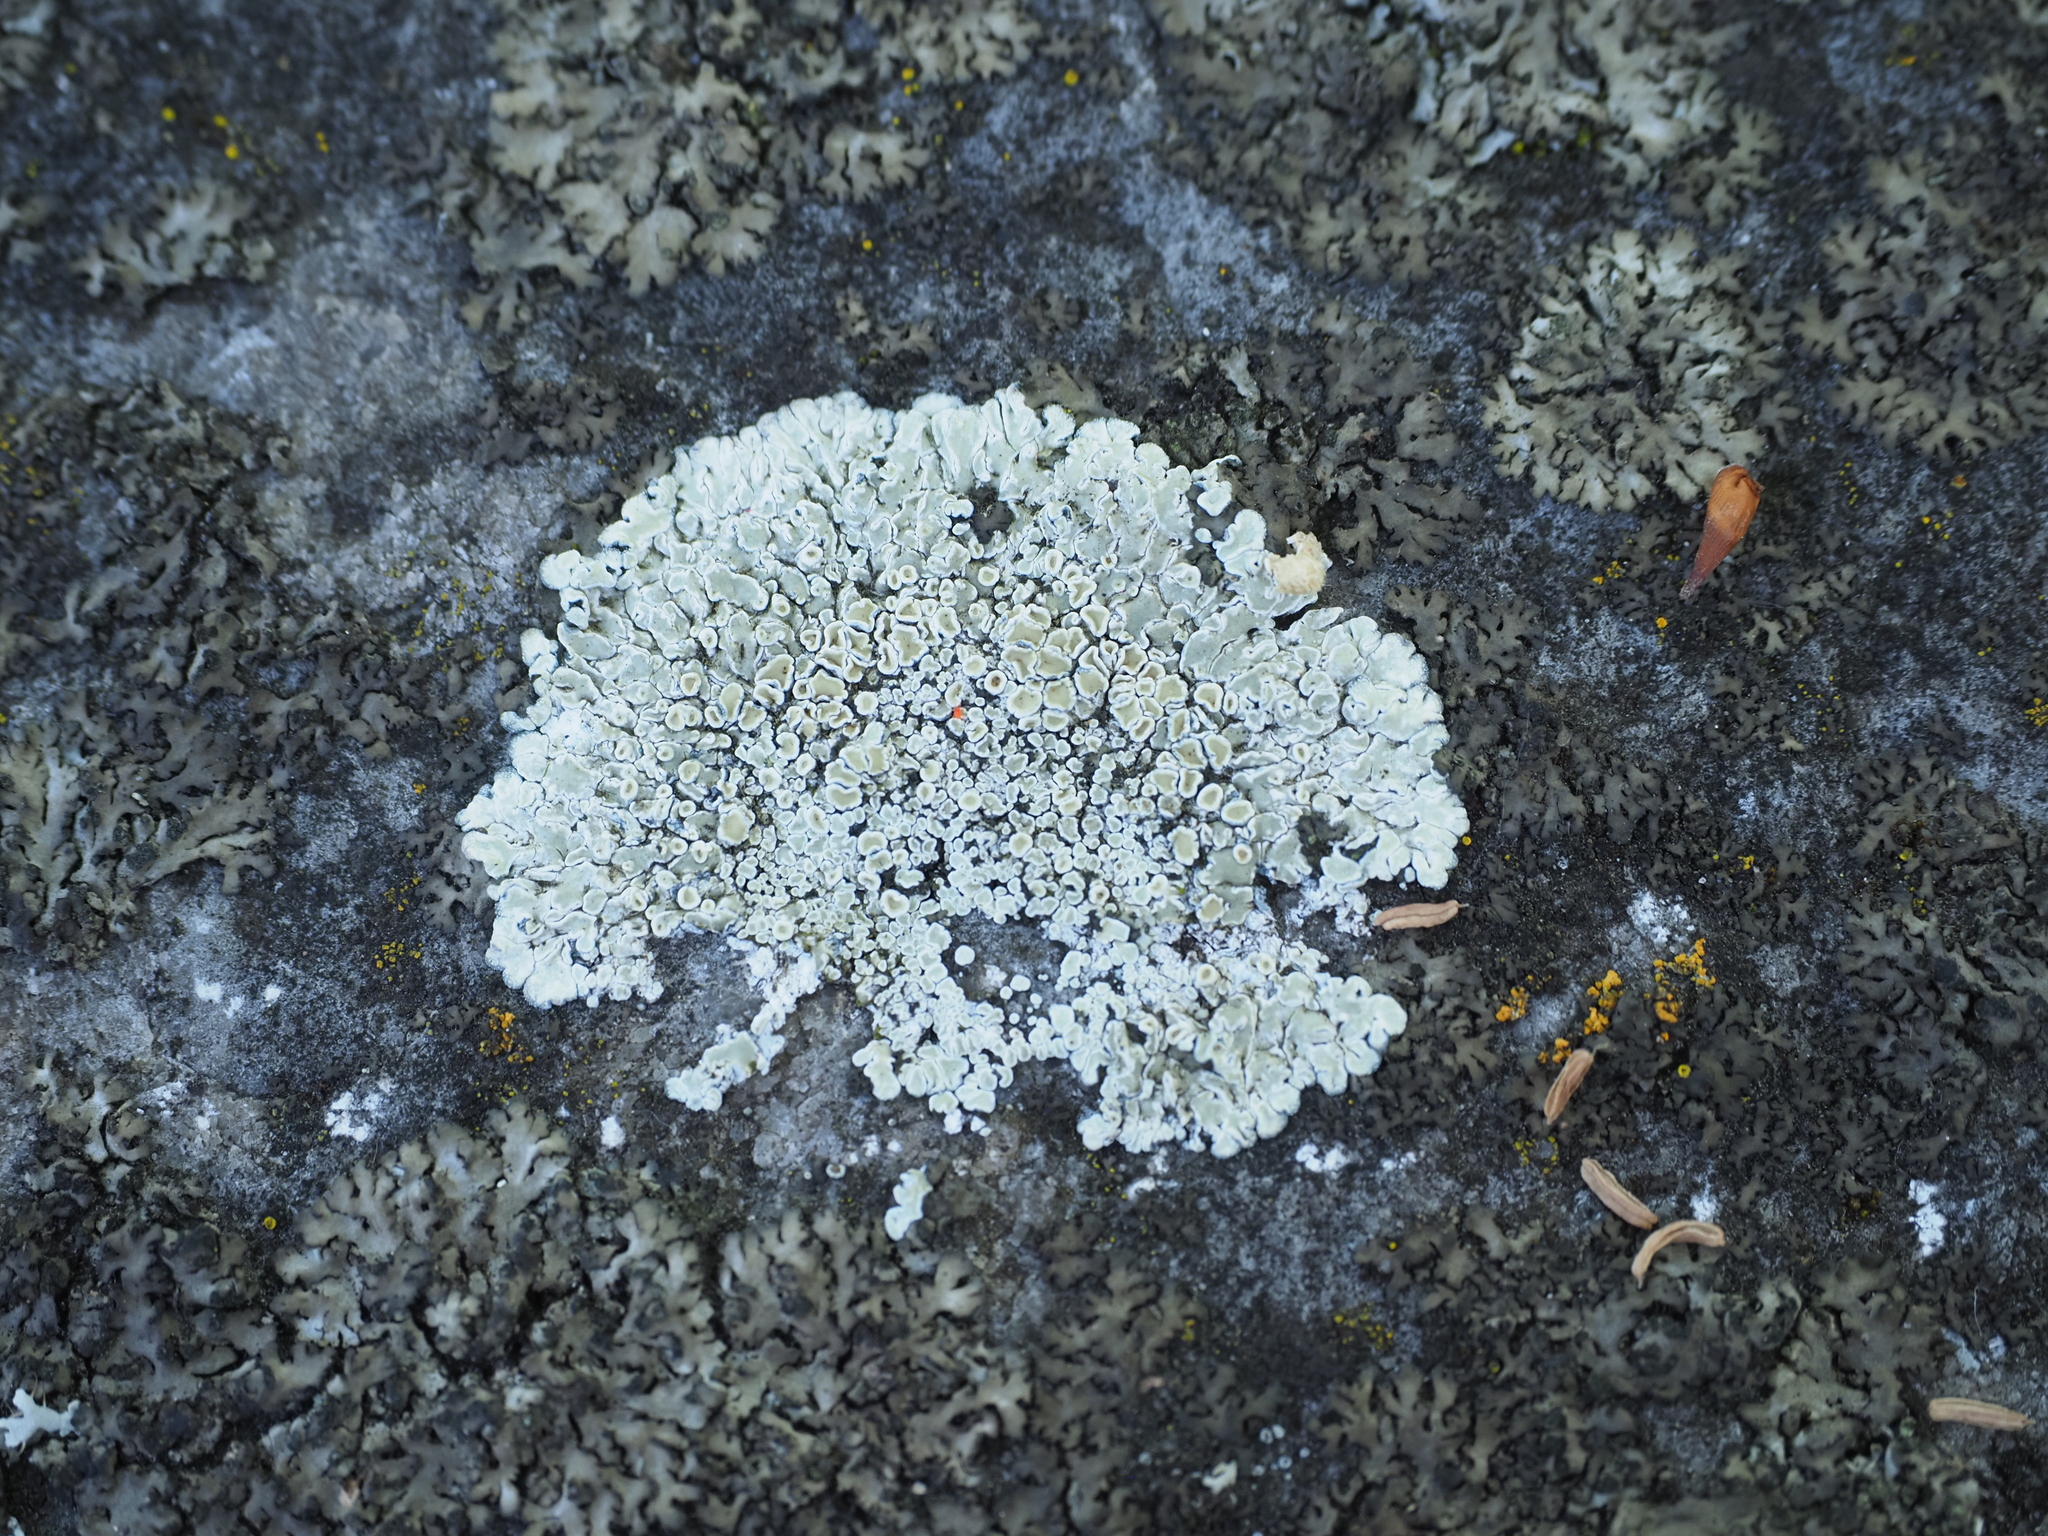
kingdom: Fungi
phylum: Ascomycota
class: Lecanoromycetes
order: Lecanorales
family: Lecanoraceae
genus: Protoparmeliopsis
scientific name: Protoparmeliopsis muralis
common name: Stonewall rim lichen
